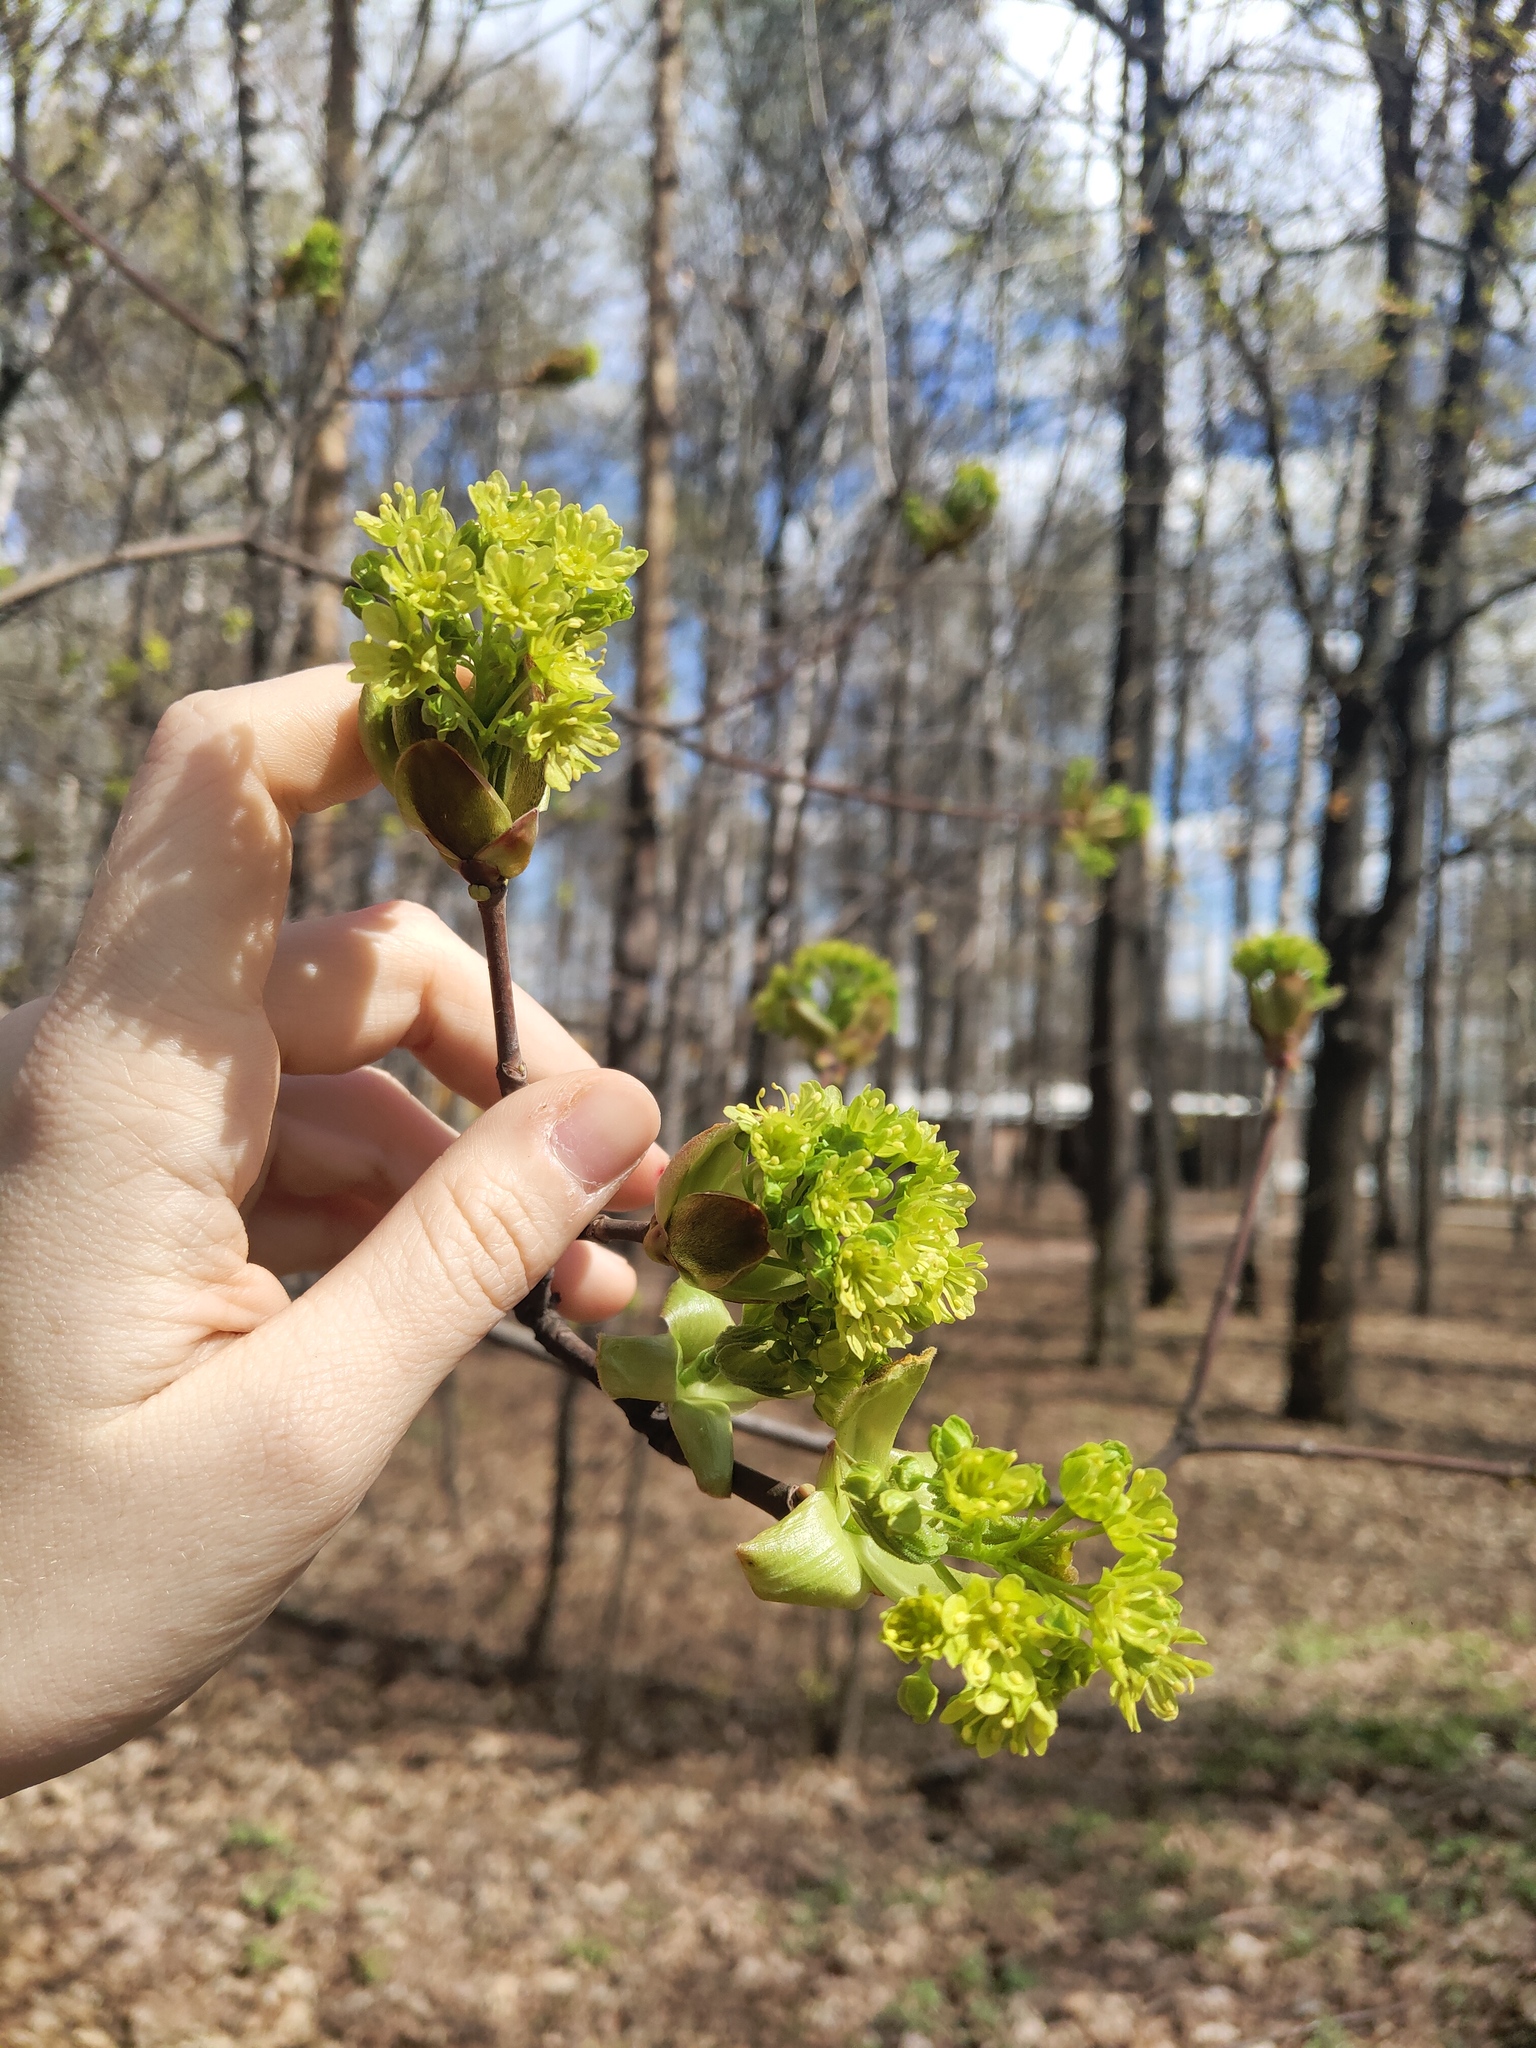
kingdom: Plantae
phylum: Tracheophyta
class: Magnoliopsida
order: Sapindales
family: Sapindaceae
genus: Acer
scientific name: Acer platanoides
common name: Norway maple
